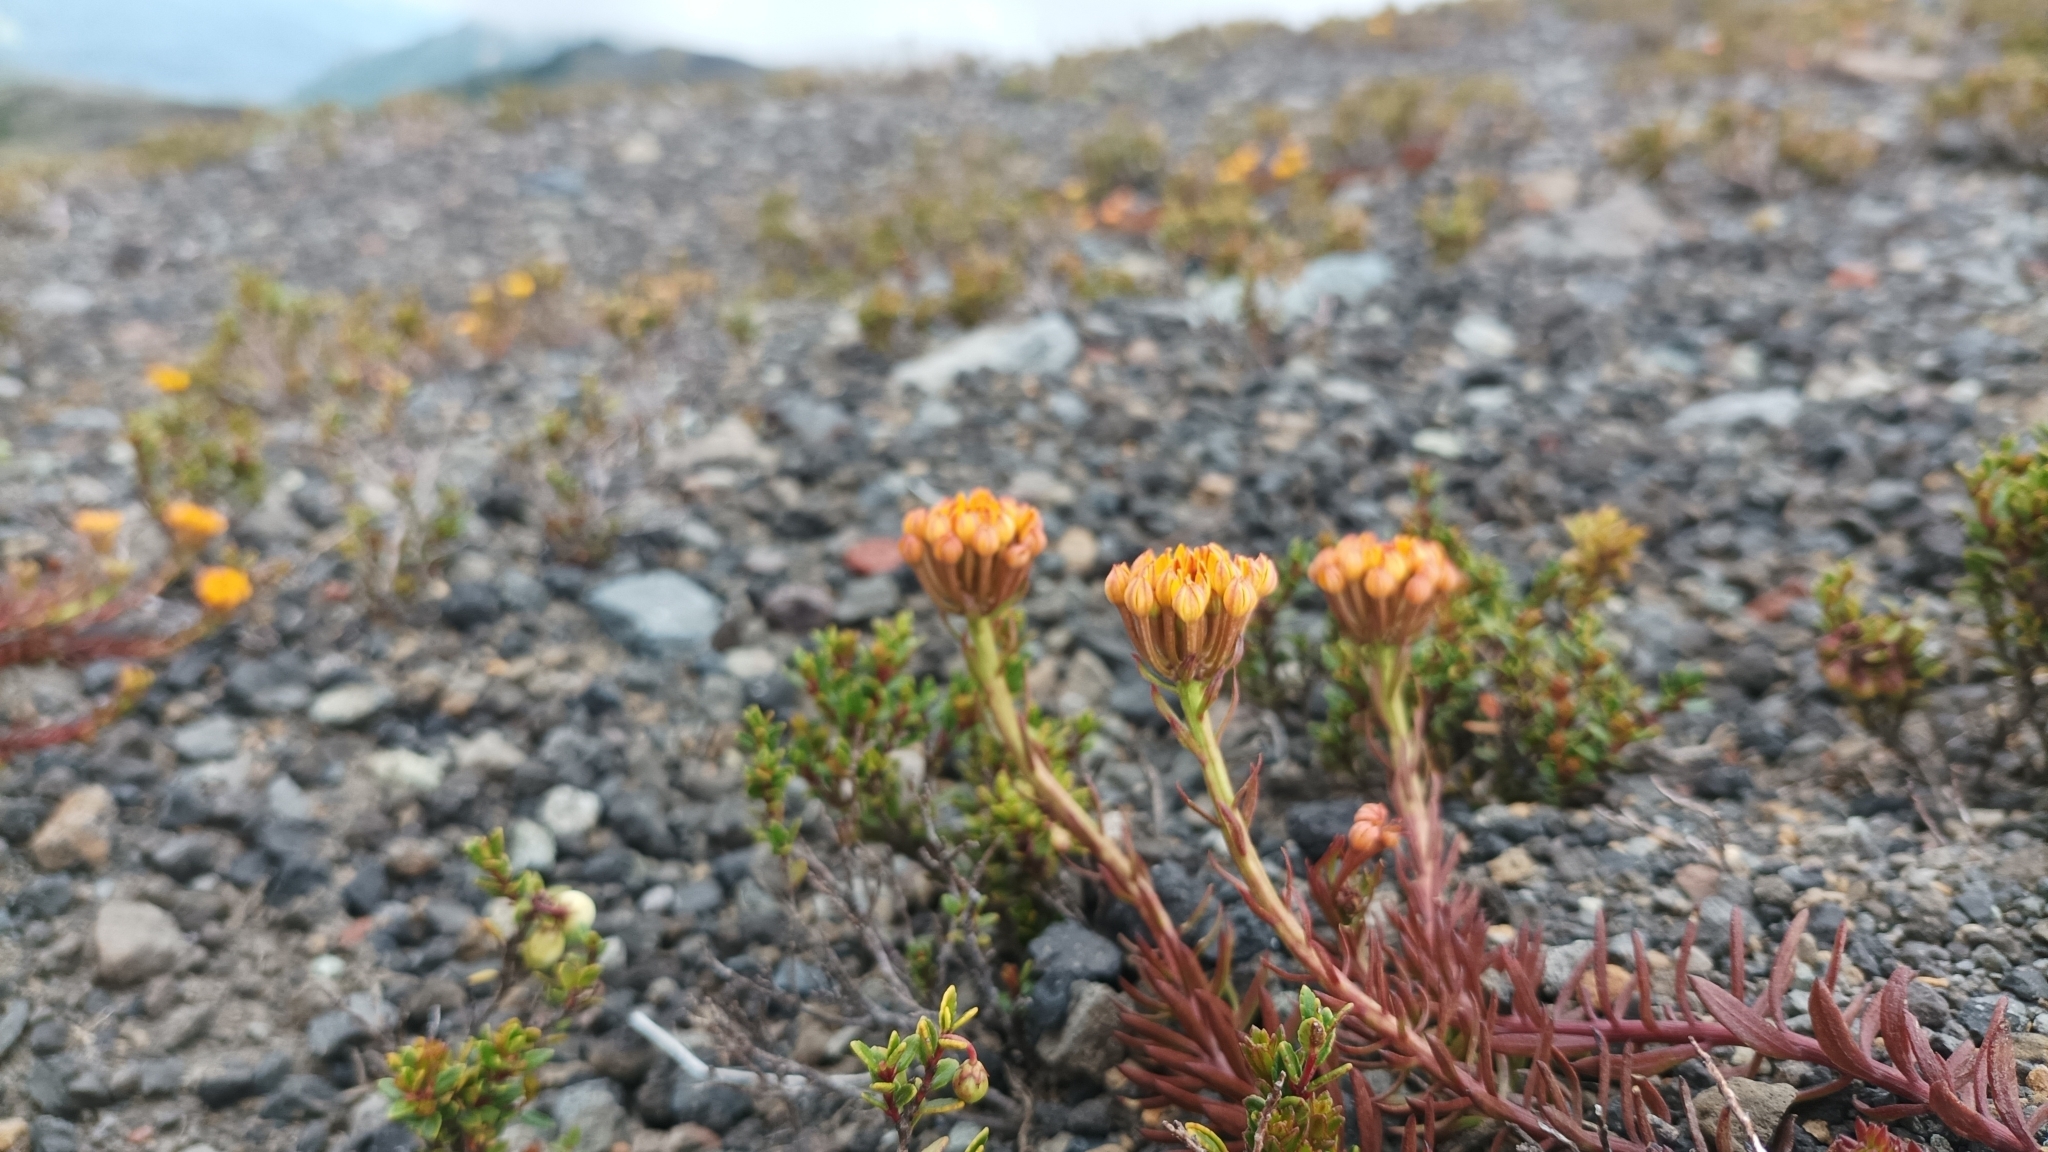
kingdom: Plantae
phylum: Tracheophyta
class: Magnoliopsida
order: Santalales
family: Schoepfiaceae
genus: Quinchamalium
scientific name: Quinchamalium chilense
